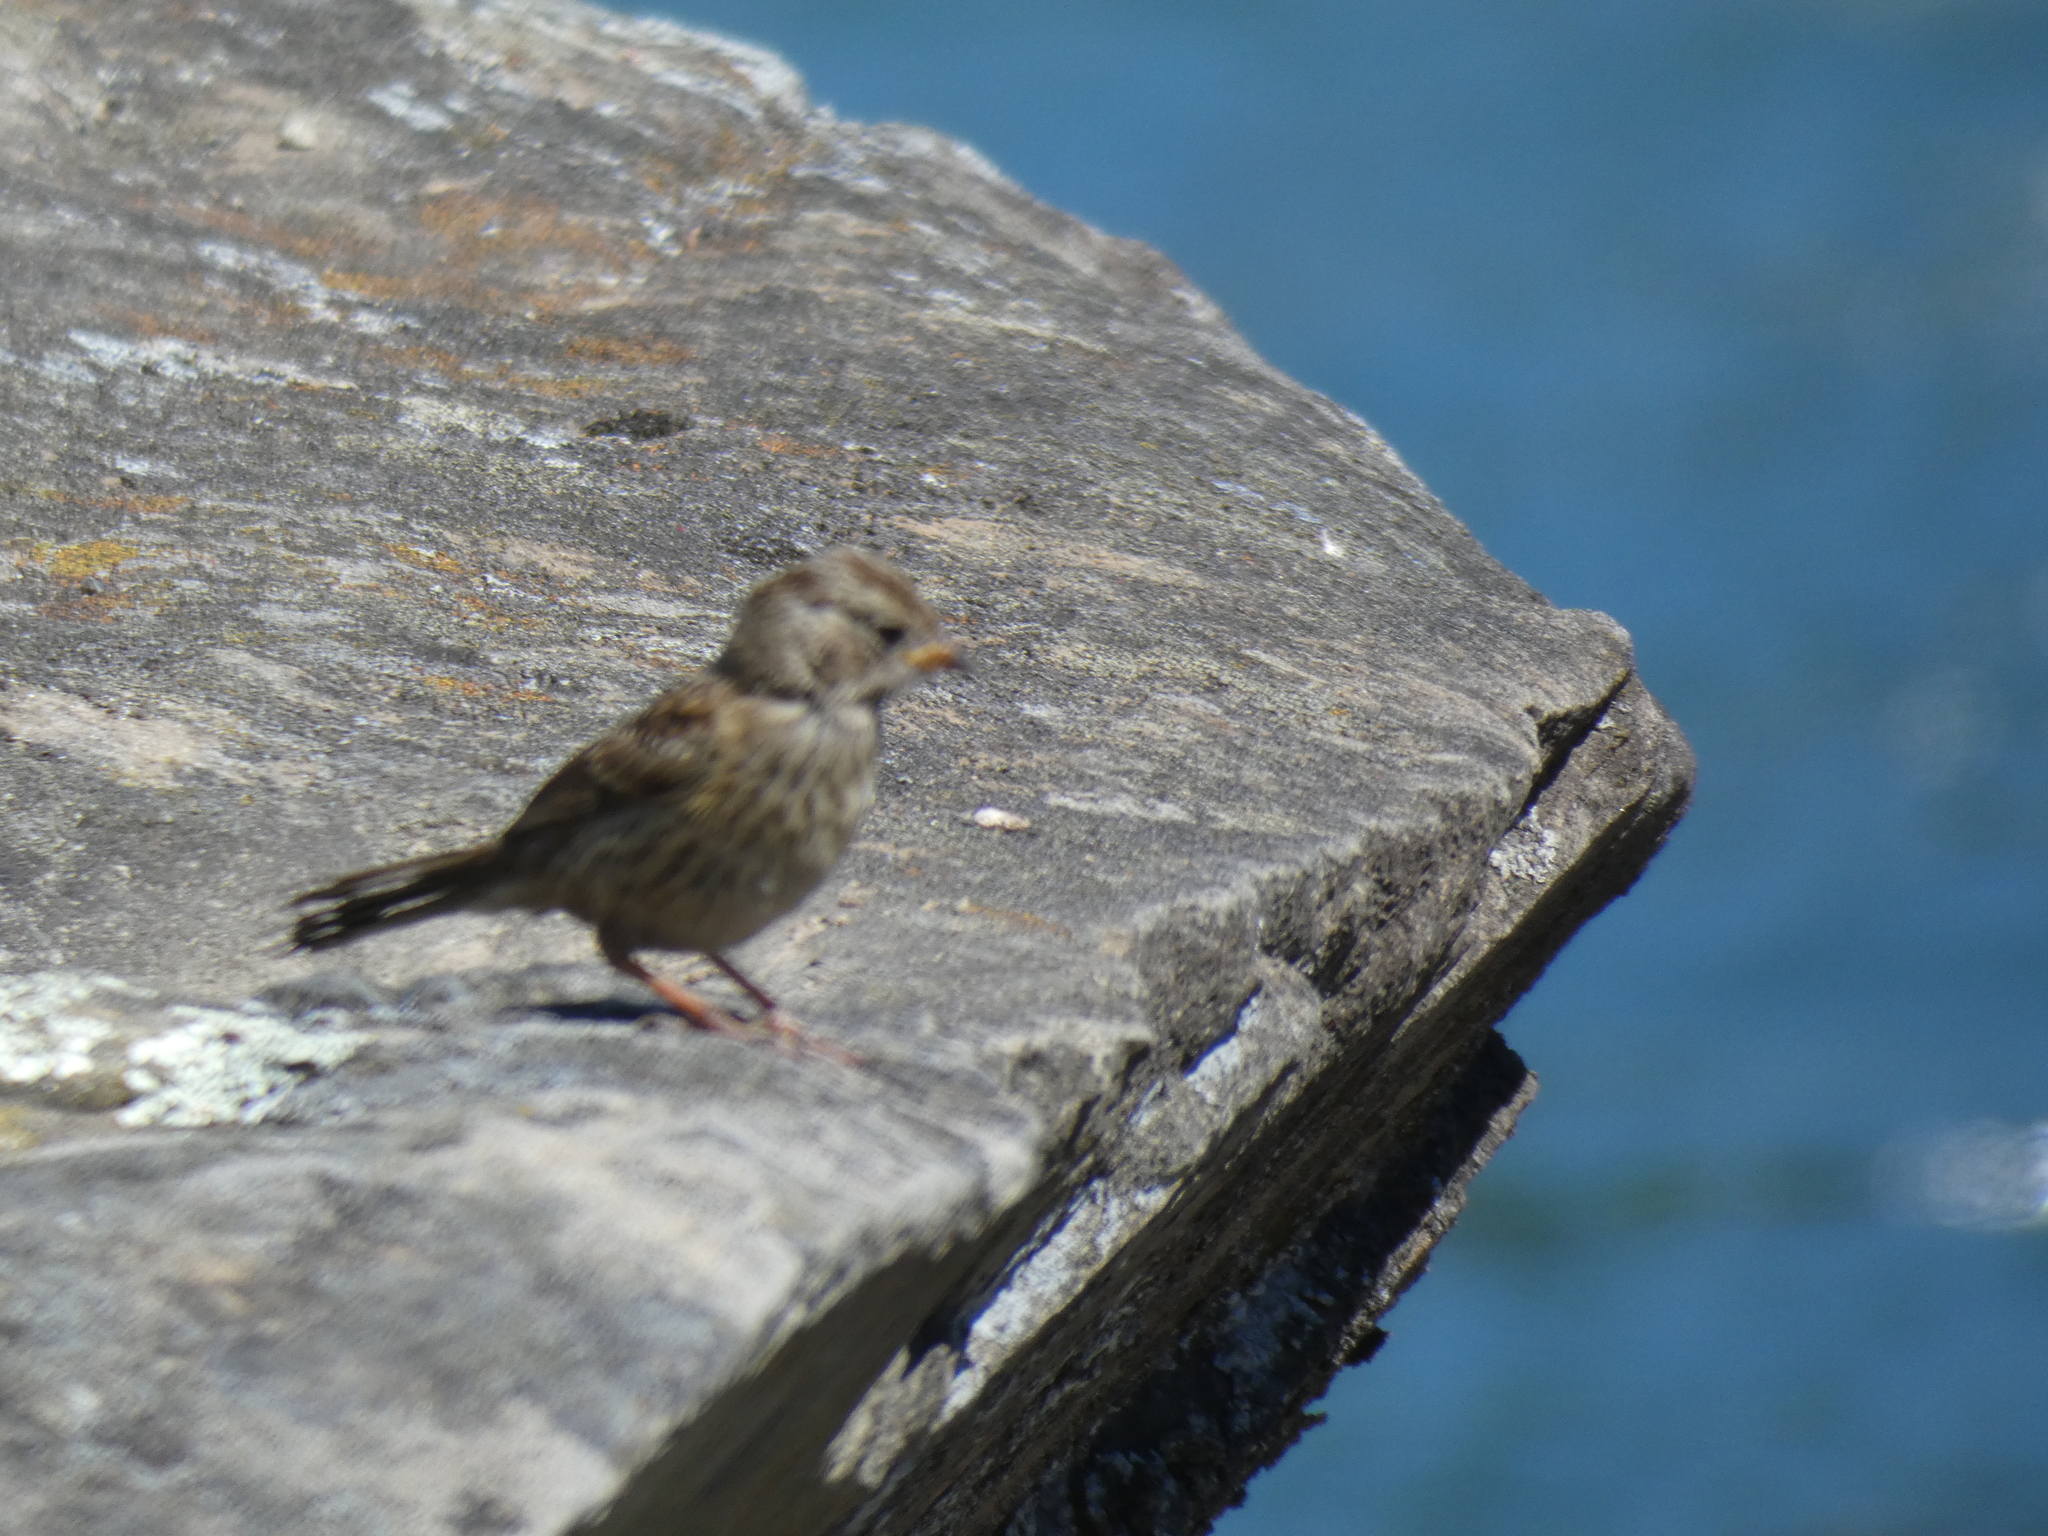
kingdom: Animalia
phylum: Chordata
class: Aves
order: Passeriformes
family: Passerellidae
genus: Zonotrichia
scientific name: Zonotrichia leucophrys
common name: White-crowned sparrow
